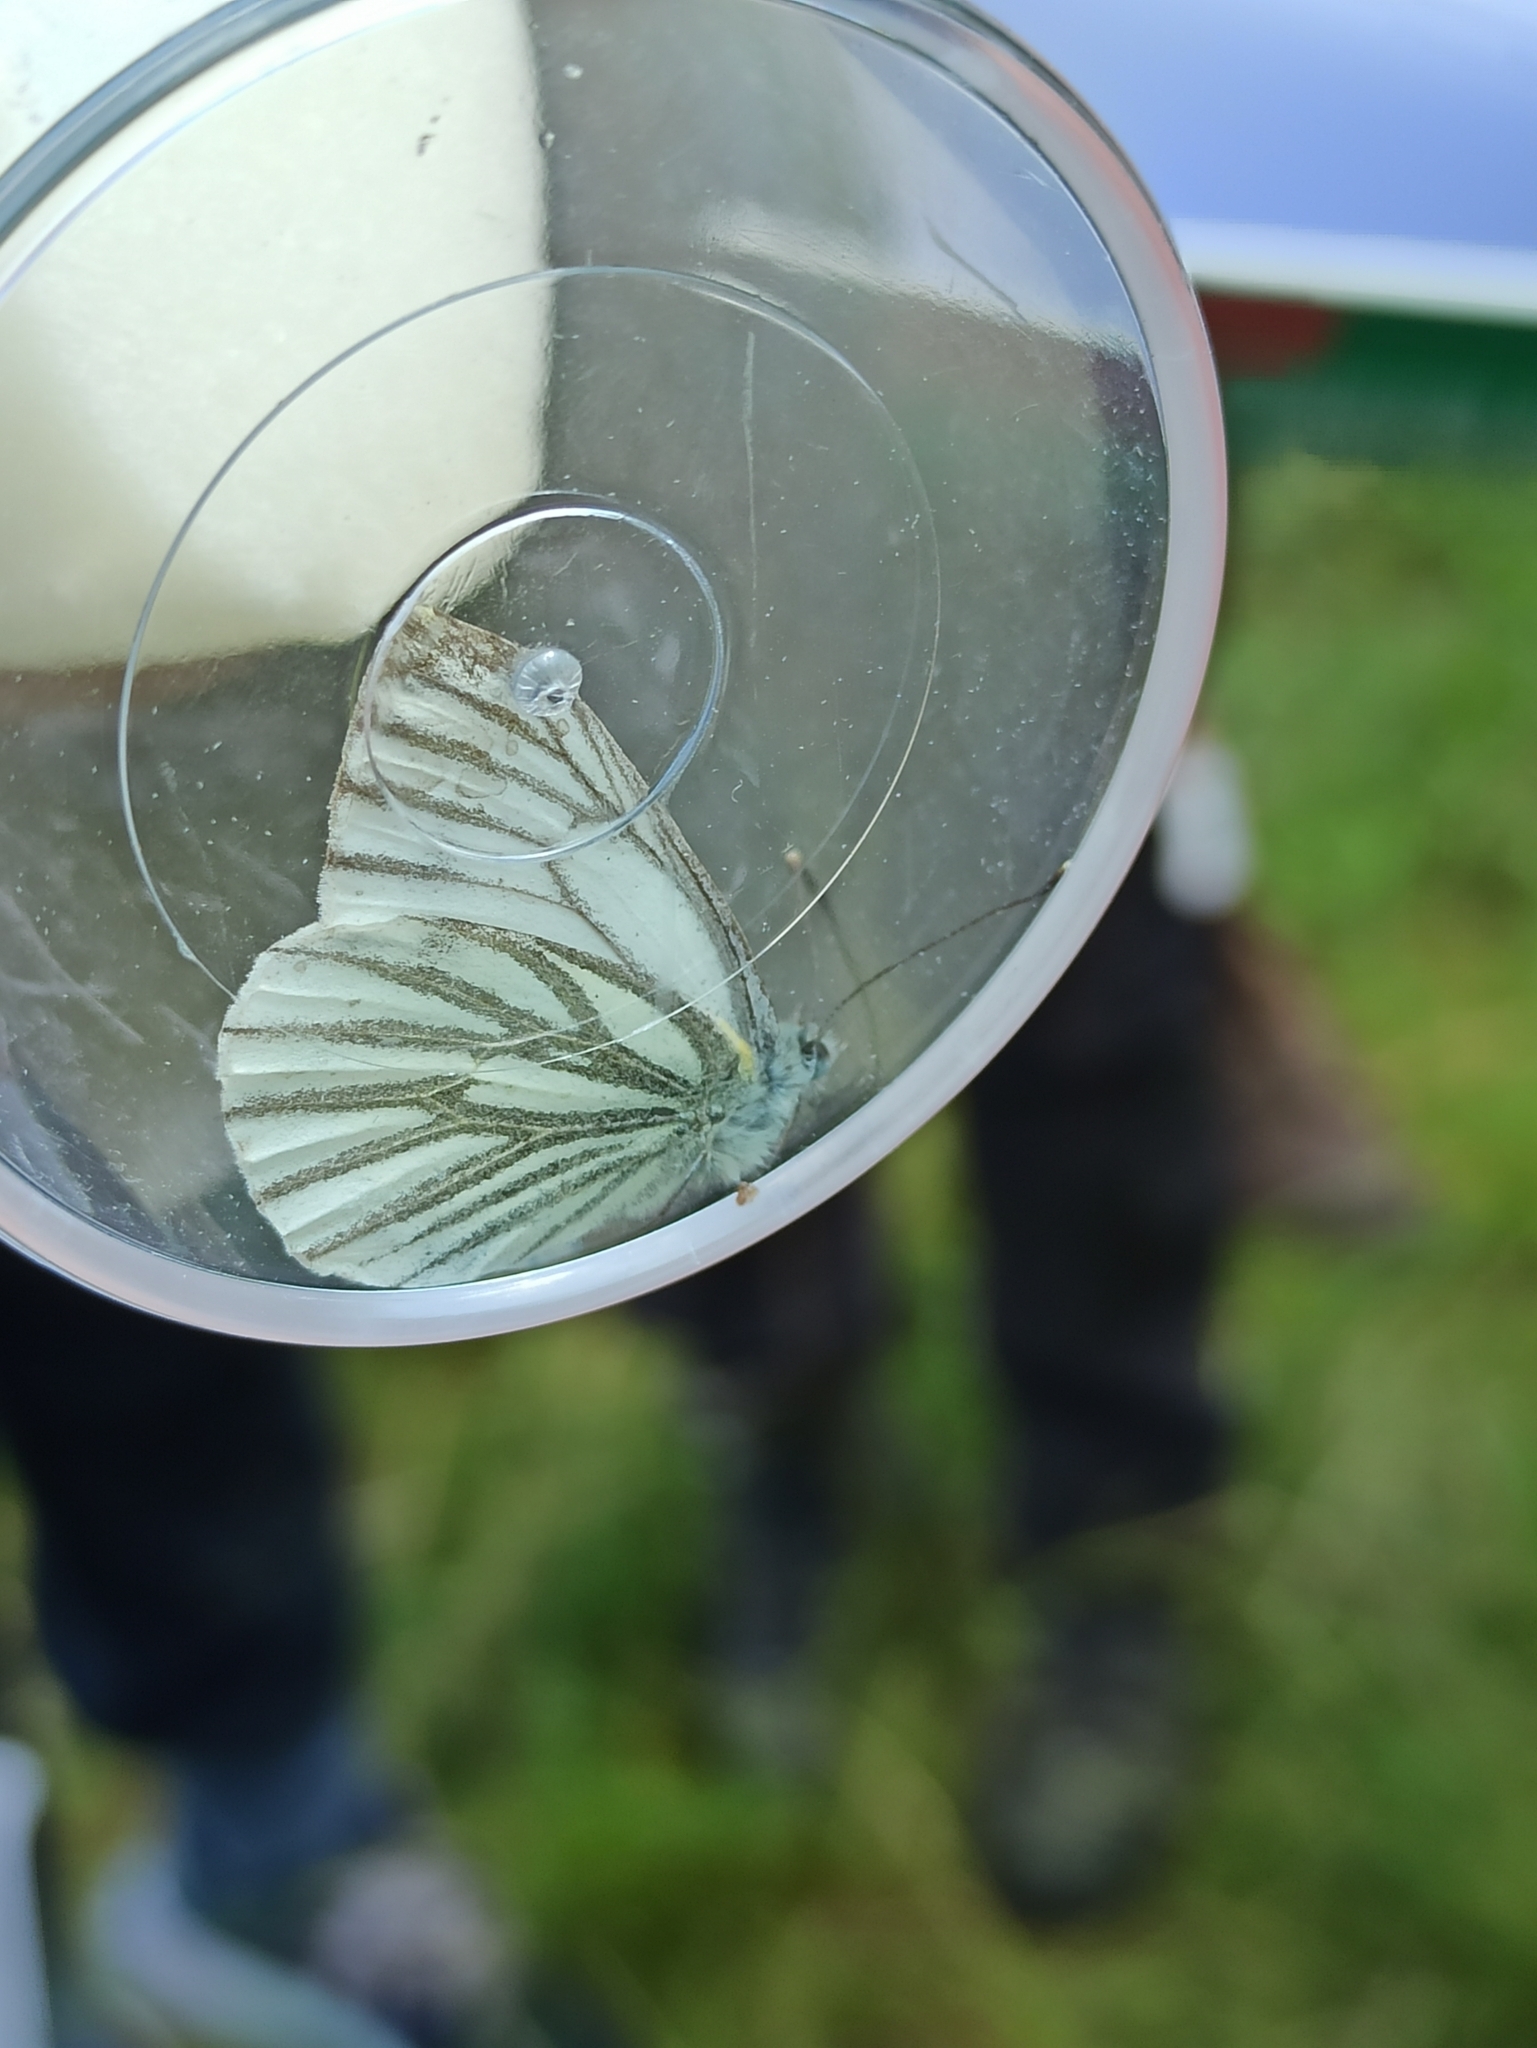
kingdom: Animalia
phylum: Arthropoda
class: Insecta
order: Lepidoptera
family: Pieridae
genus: Pieris
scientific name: Pieris napi
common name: Green-veined white
